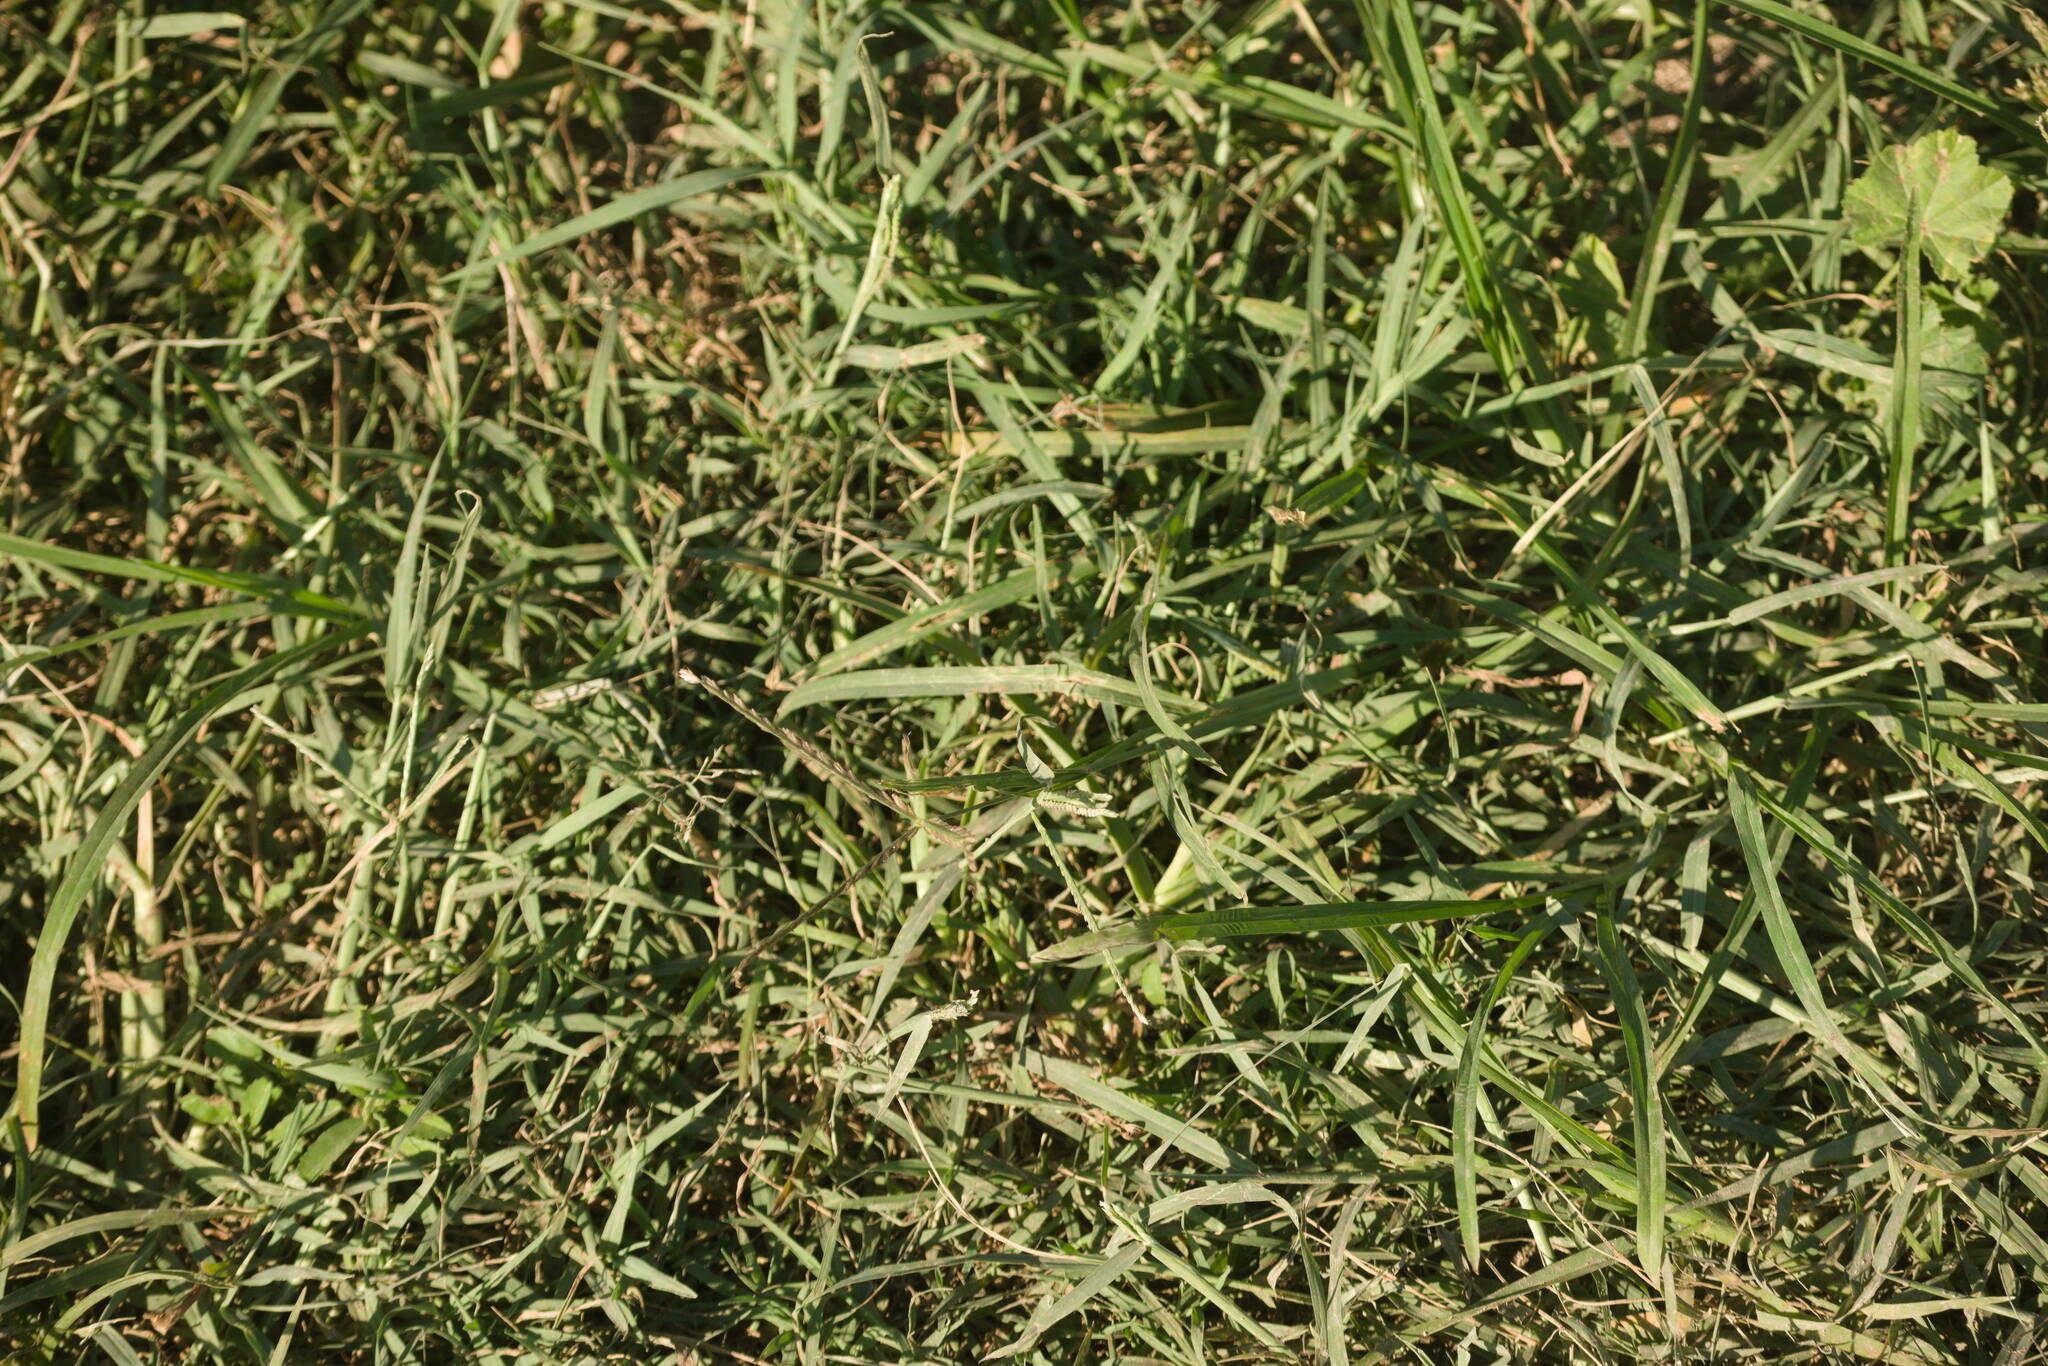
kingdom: Plantae
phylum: Tracheophyta
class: Liliopsida
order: Poales
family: Poaceae
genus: Cynodon
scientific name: Cynodon dactylon
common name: Bermuda grass
